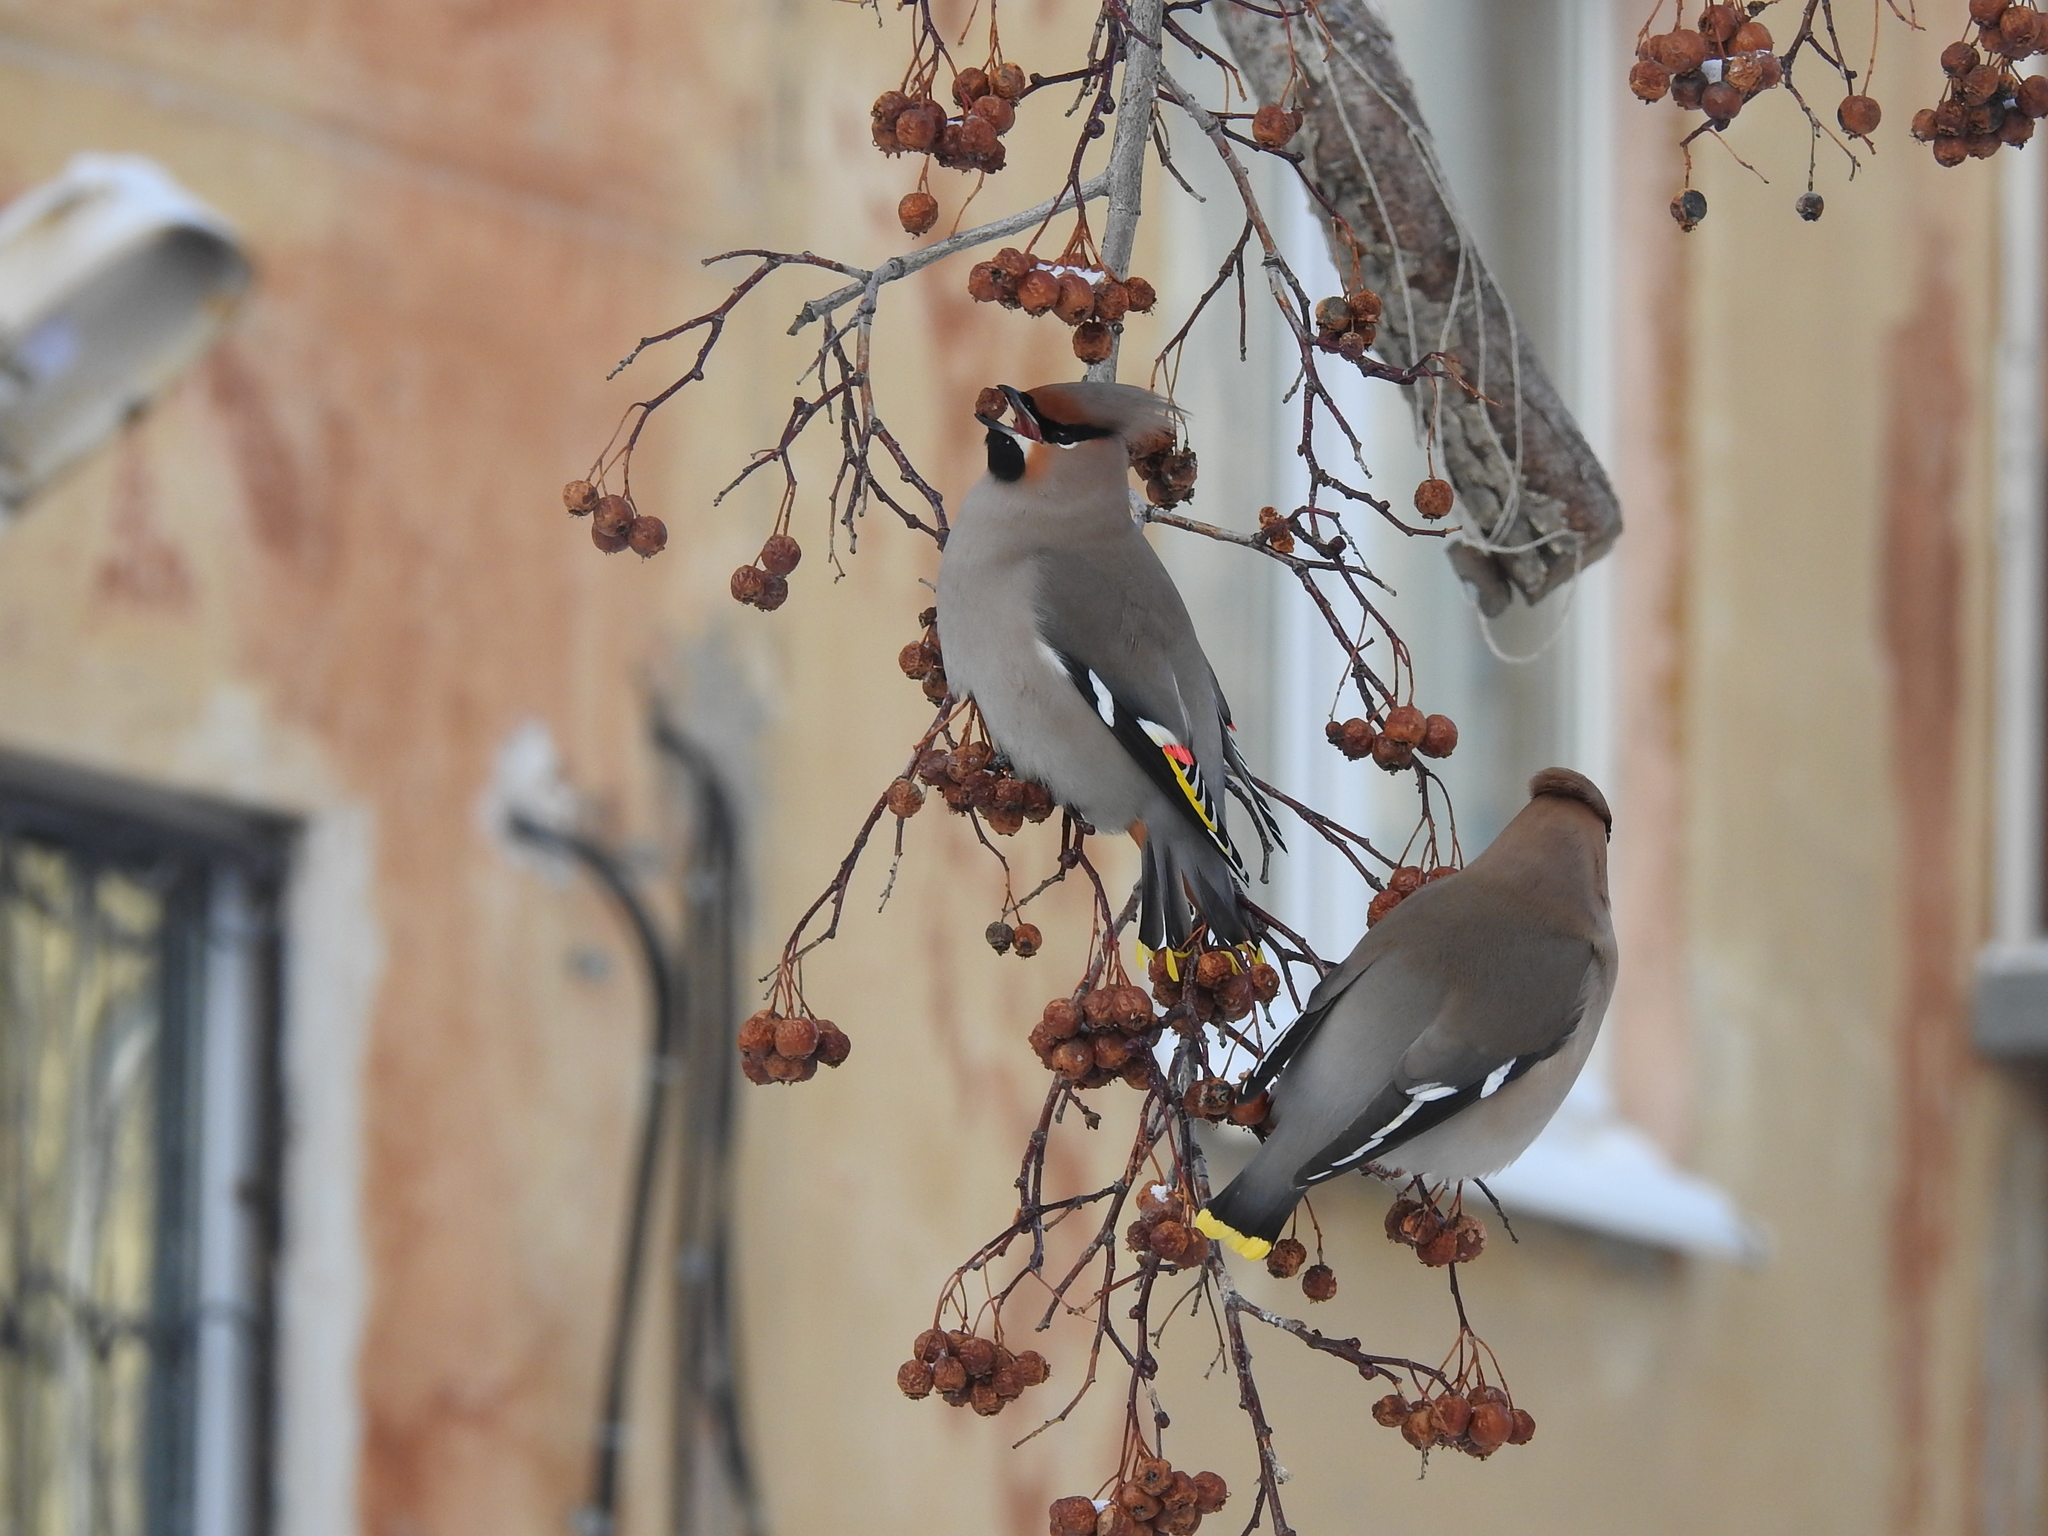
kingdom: Animalia
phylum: Chordata
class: Aves
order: Passeriformes
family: Bombycillidae
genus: Bombycilla
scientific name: Bombycilla garrulus
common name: Bohemian waxwing
